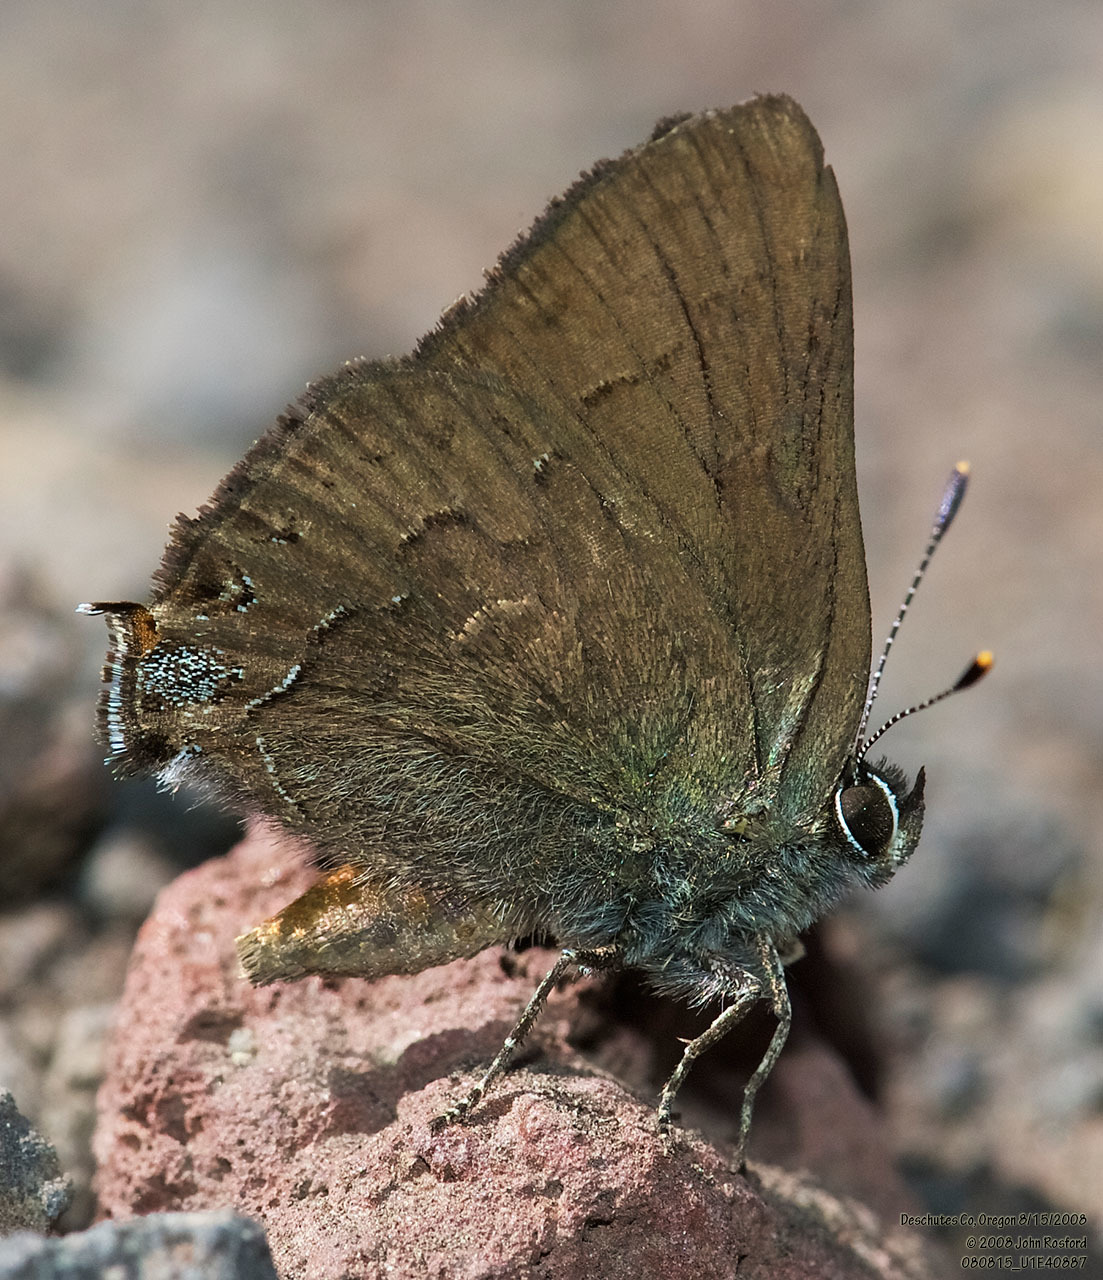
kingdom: Animalia
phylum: Arthropoda
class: Insecta
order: Lepidoptera
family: Lycaenidae
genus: Strymon
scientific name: Strymon saepium
